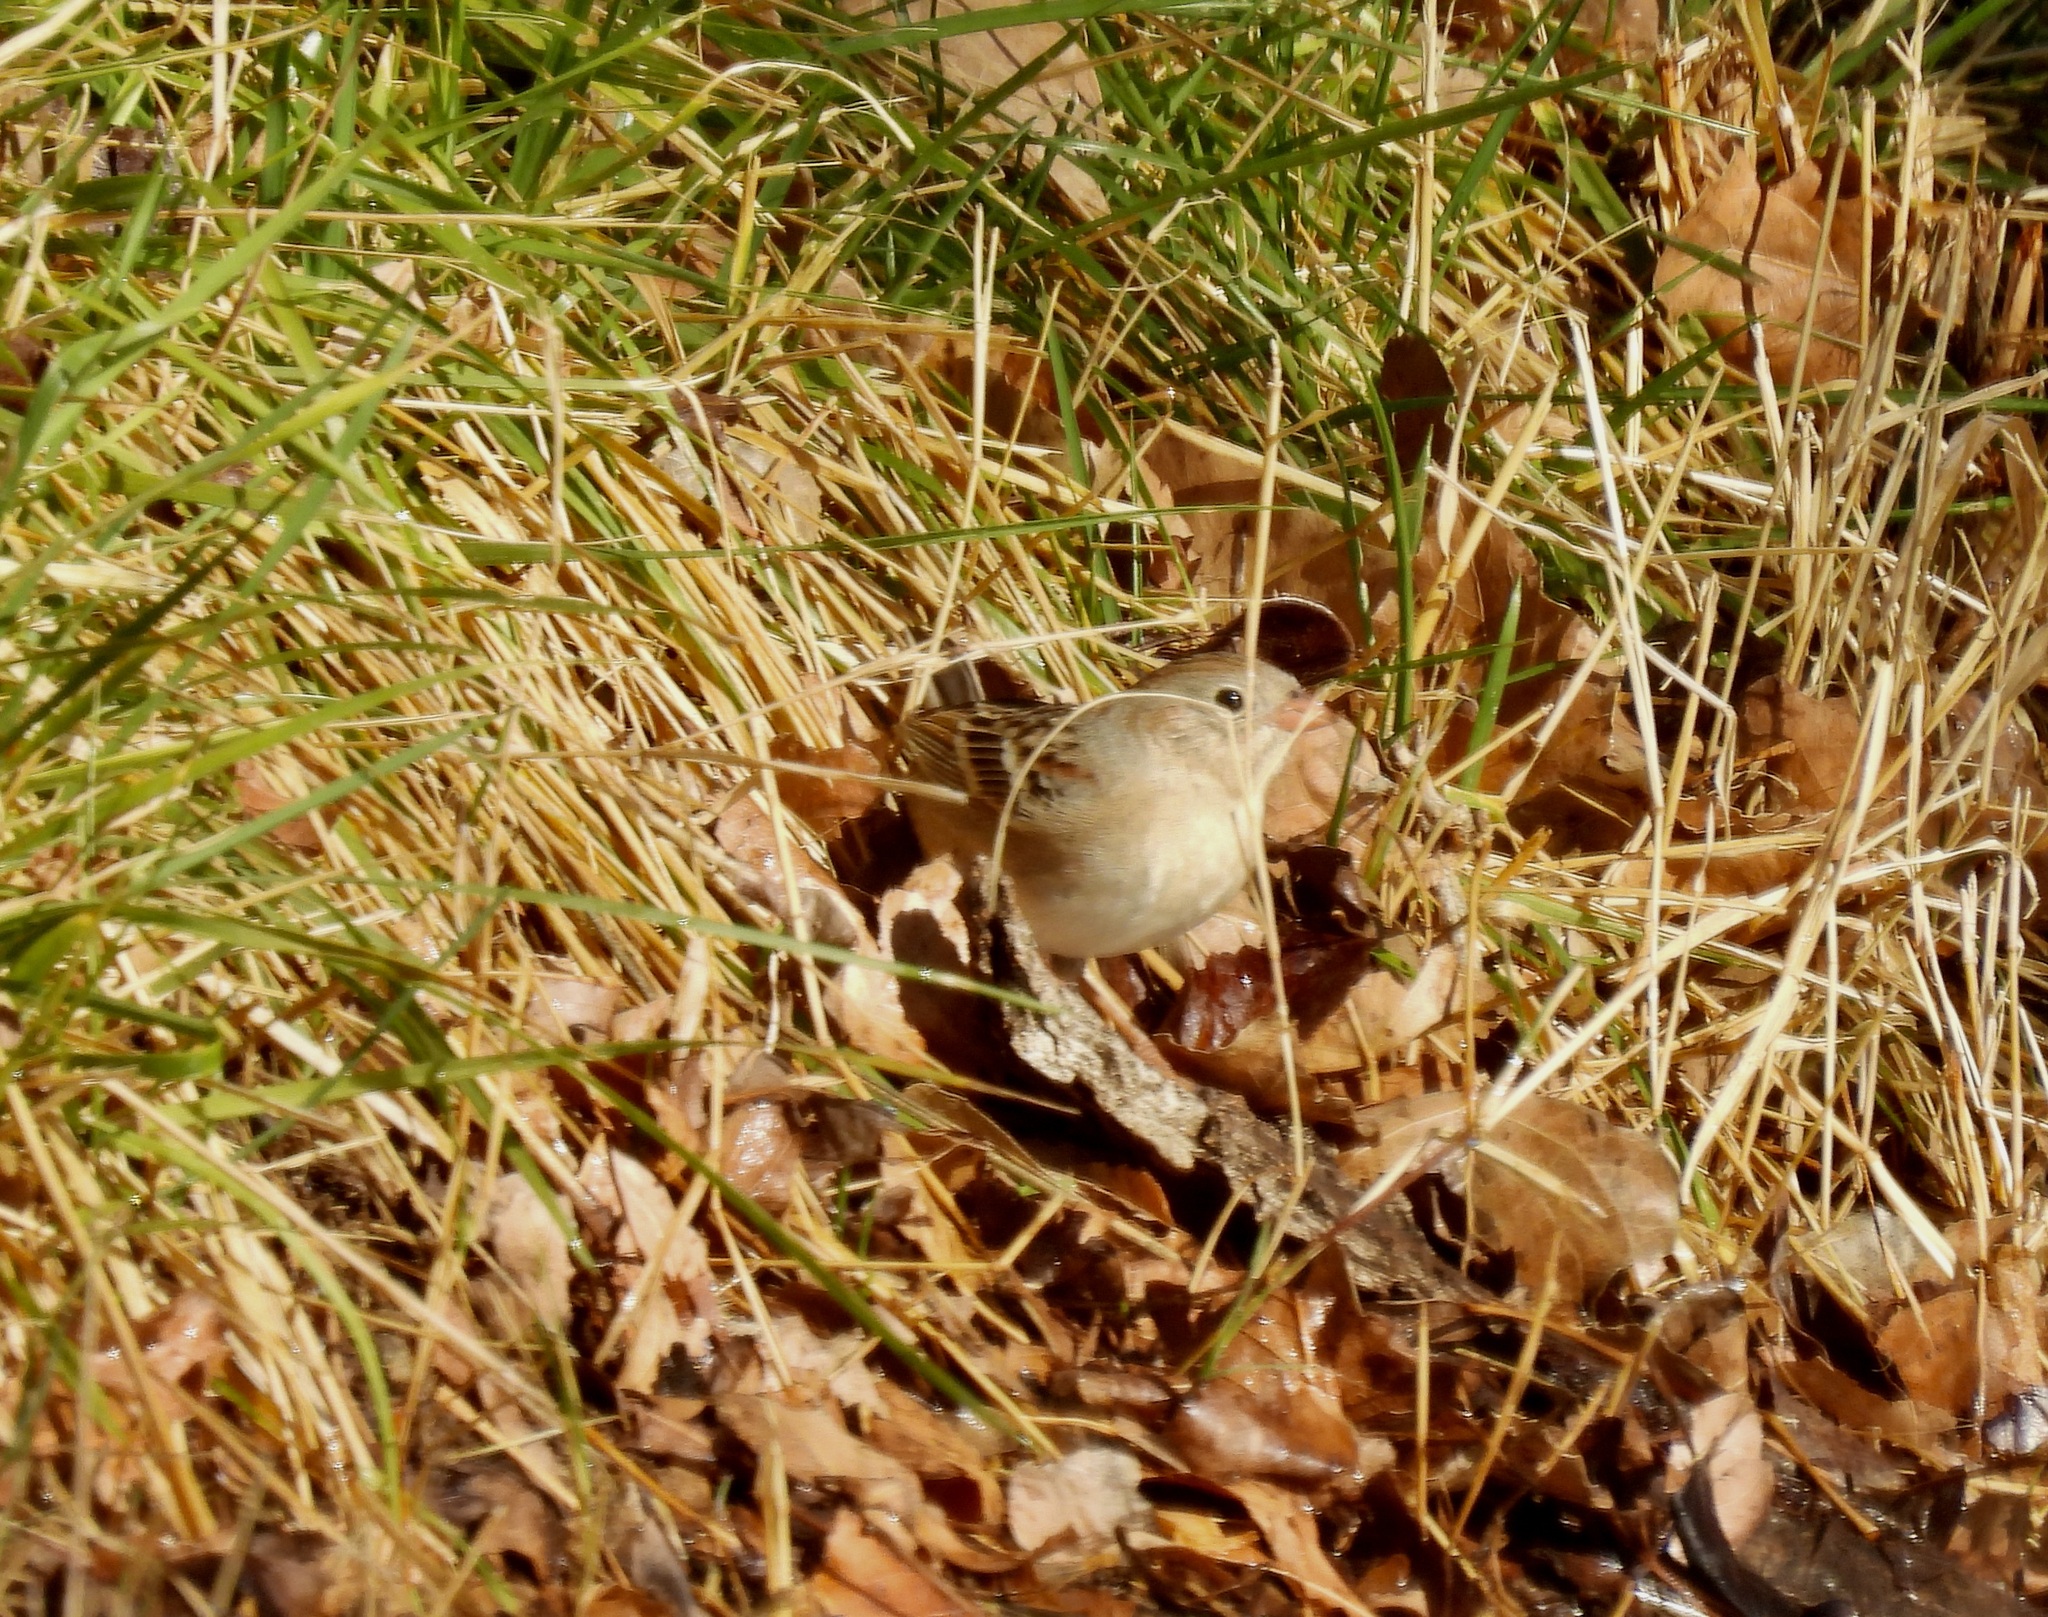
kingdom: Animalia
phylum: Chordata
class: Aves
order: Passeriformes
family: Passerellidae
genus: Spizella
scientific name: Spizella pusilla
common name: Field sparrow
